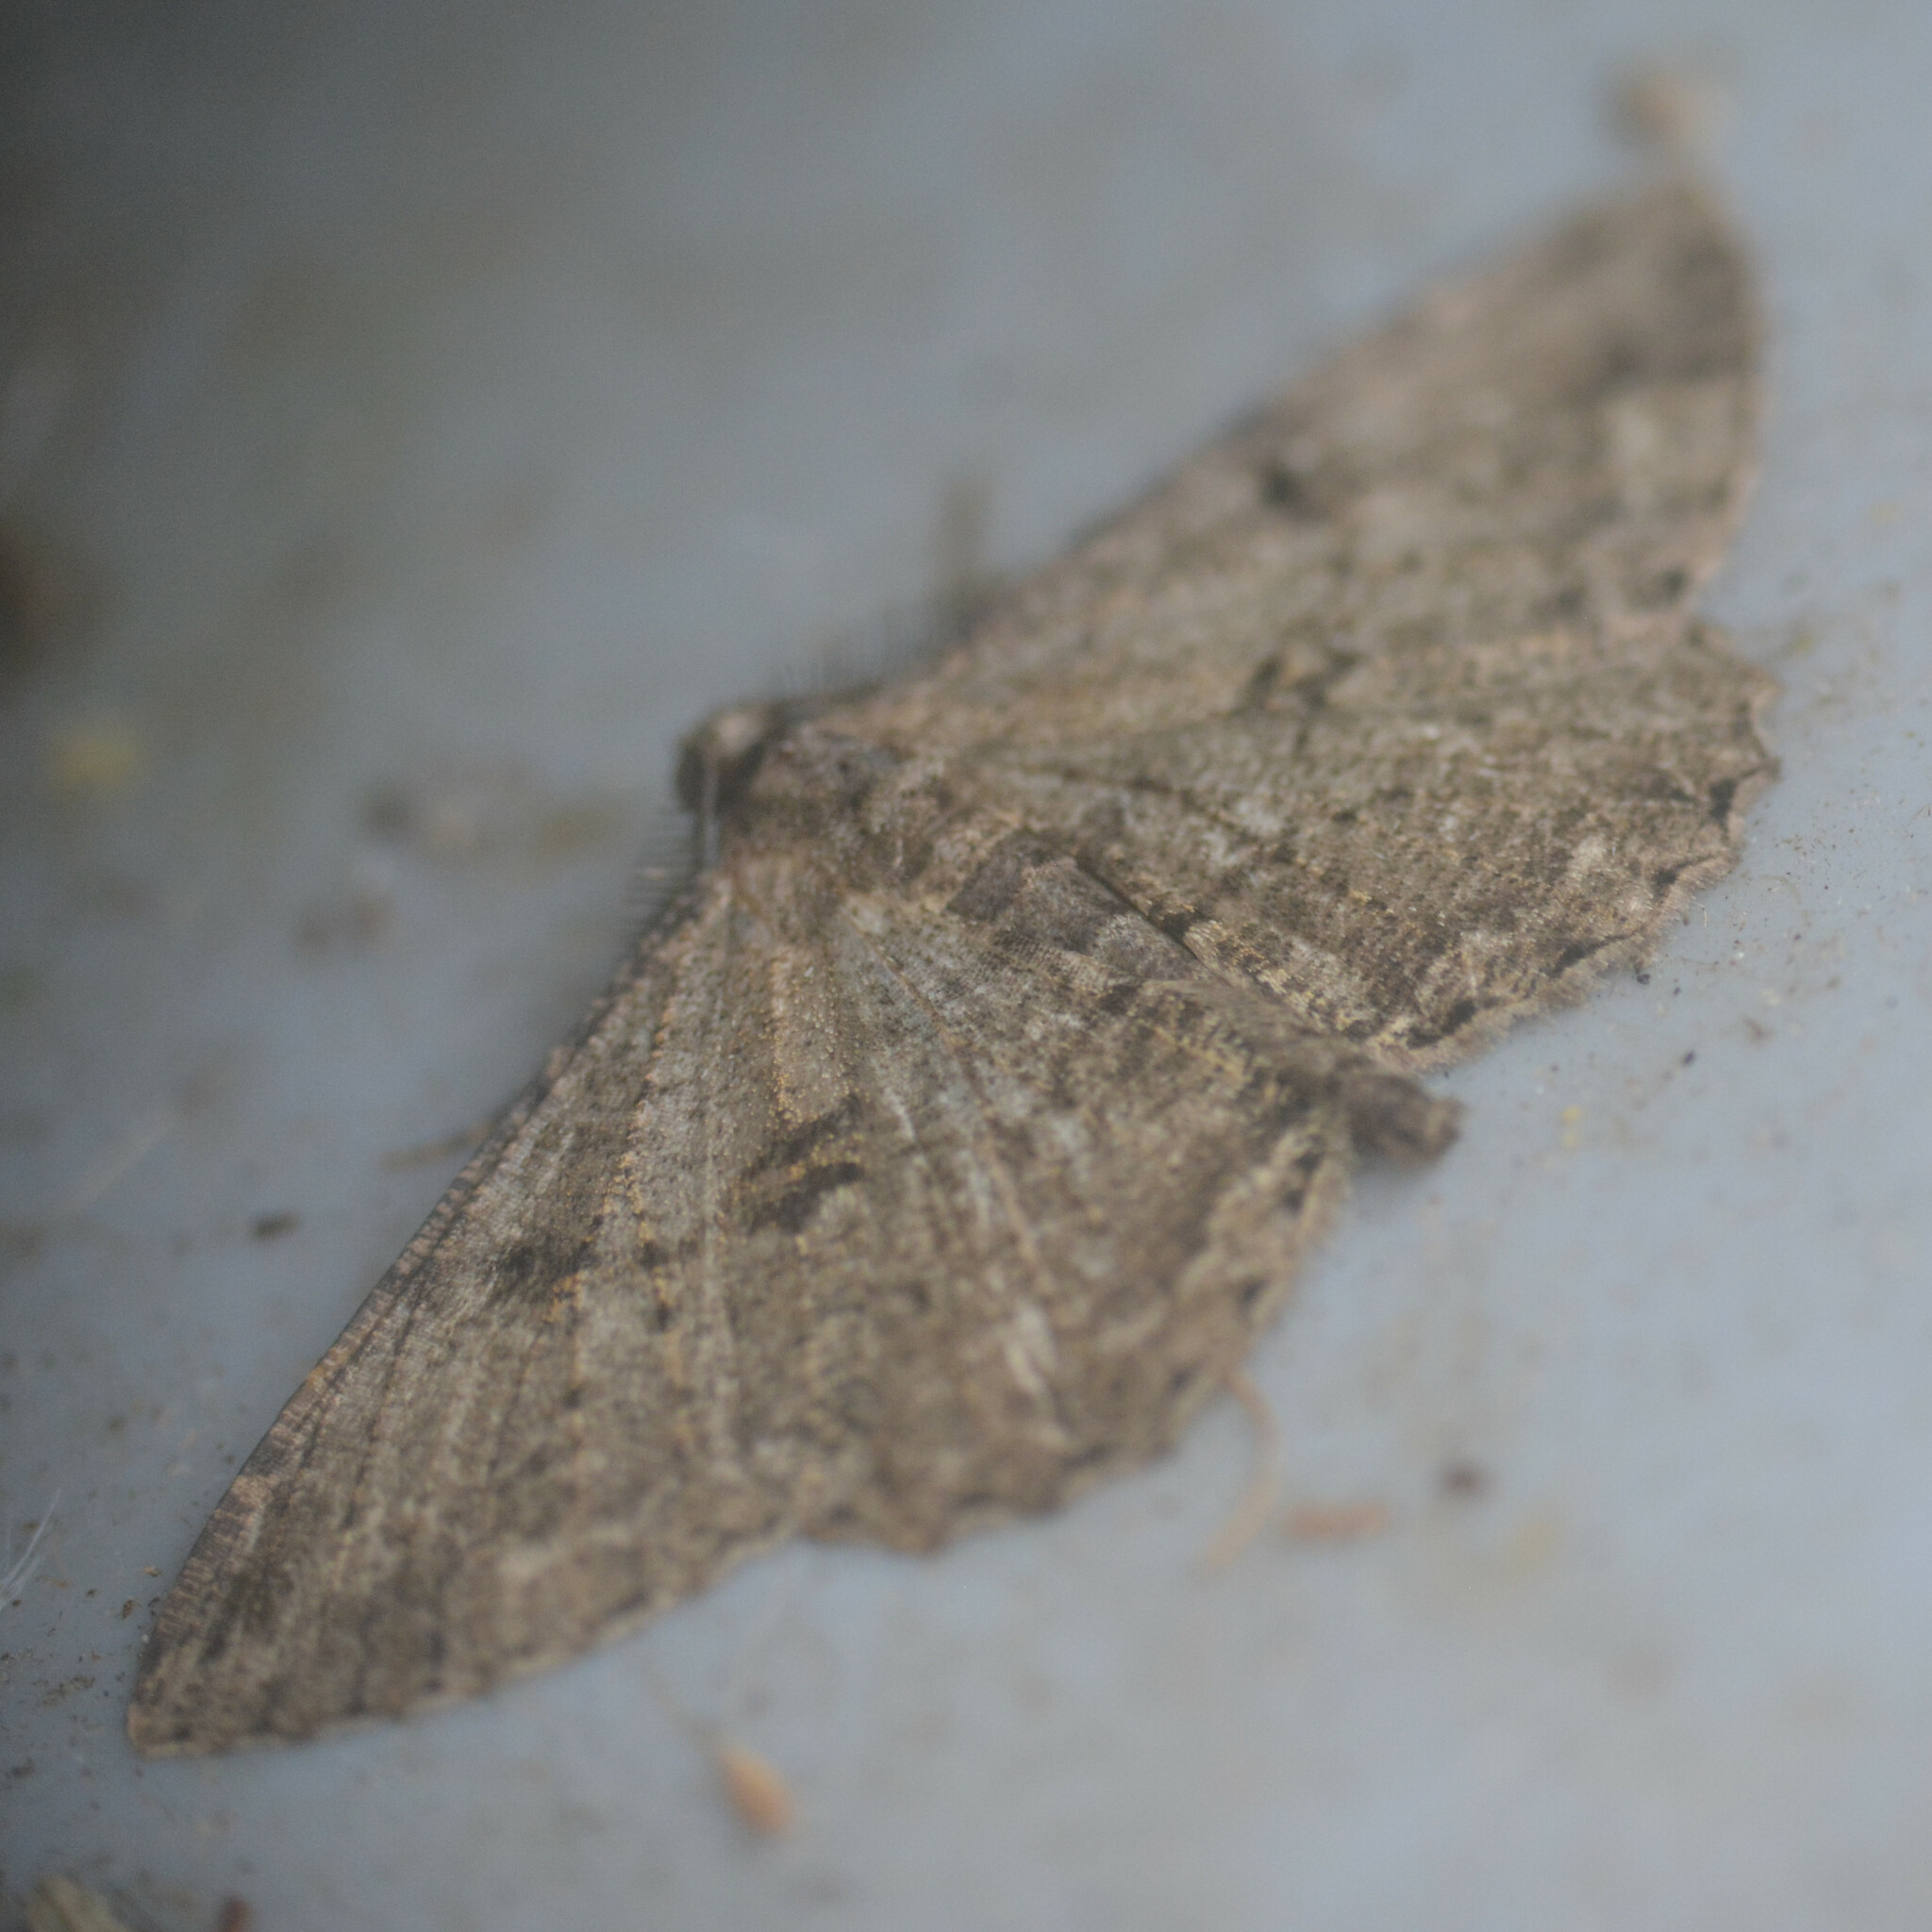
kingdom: Animalia
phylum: Arthropoda
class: Insecta
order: Lepidoptera
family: Geometridae
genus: Peribatodes
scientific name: Peribatodes rhomboidaria
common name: Willow beauty
